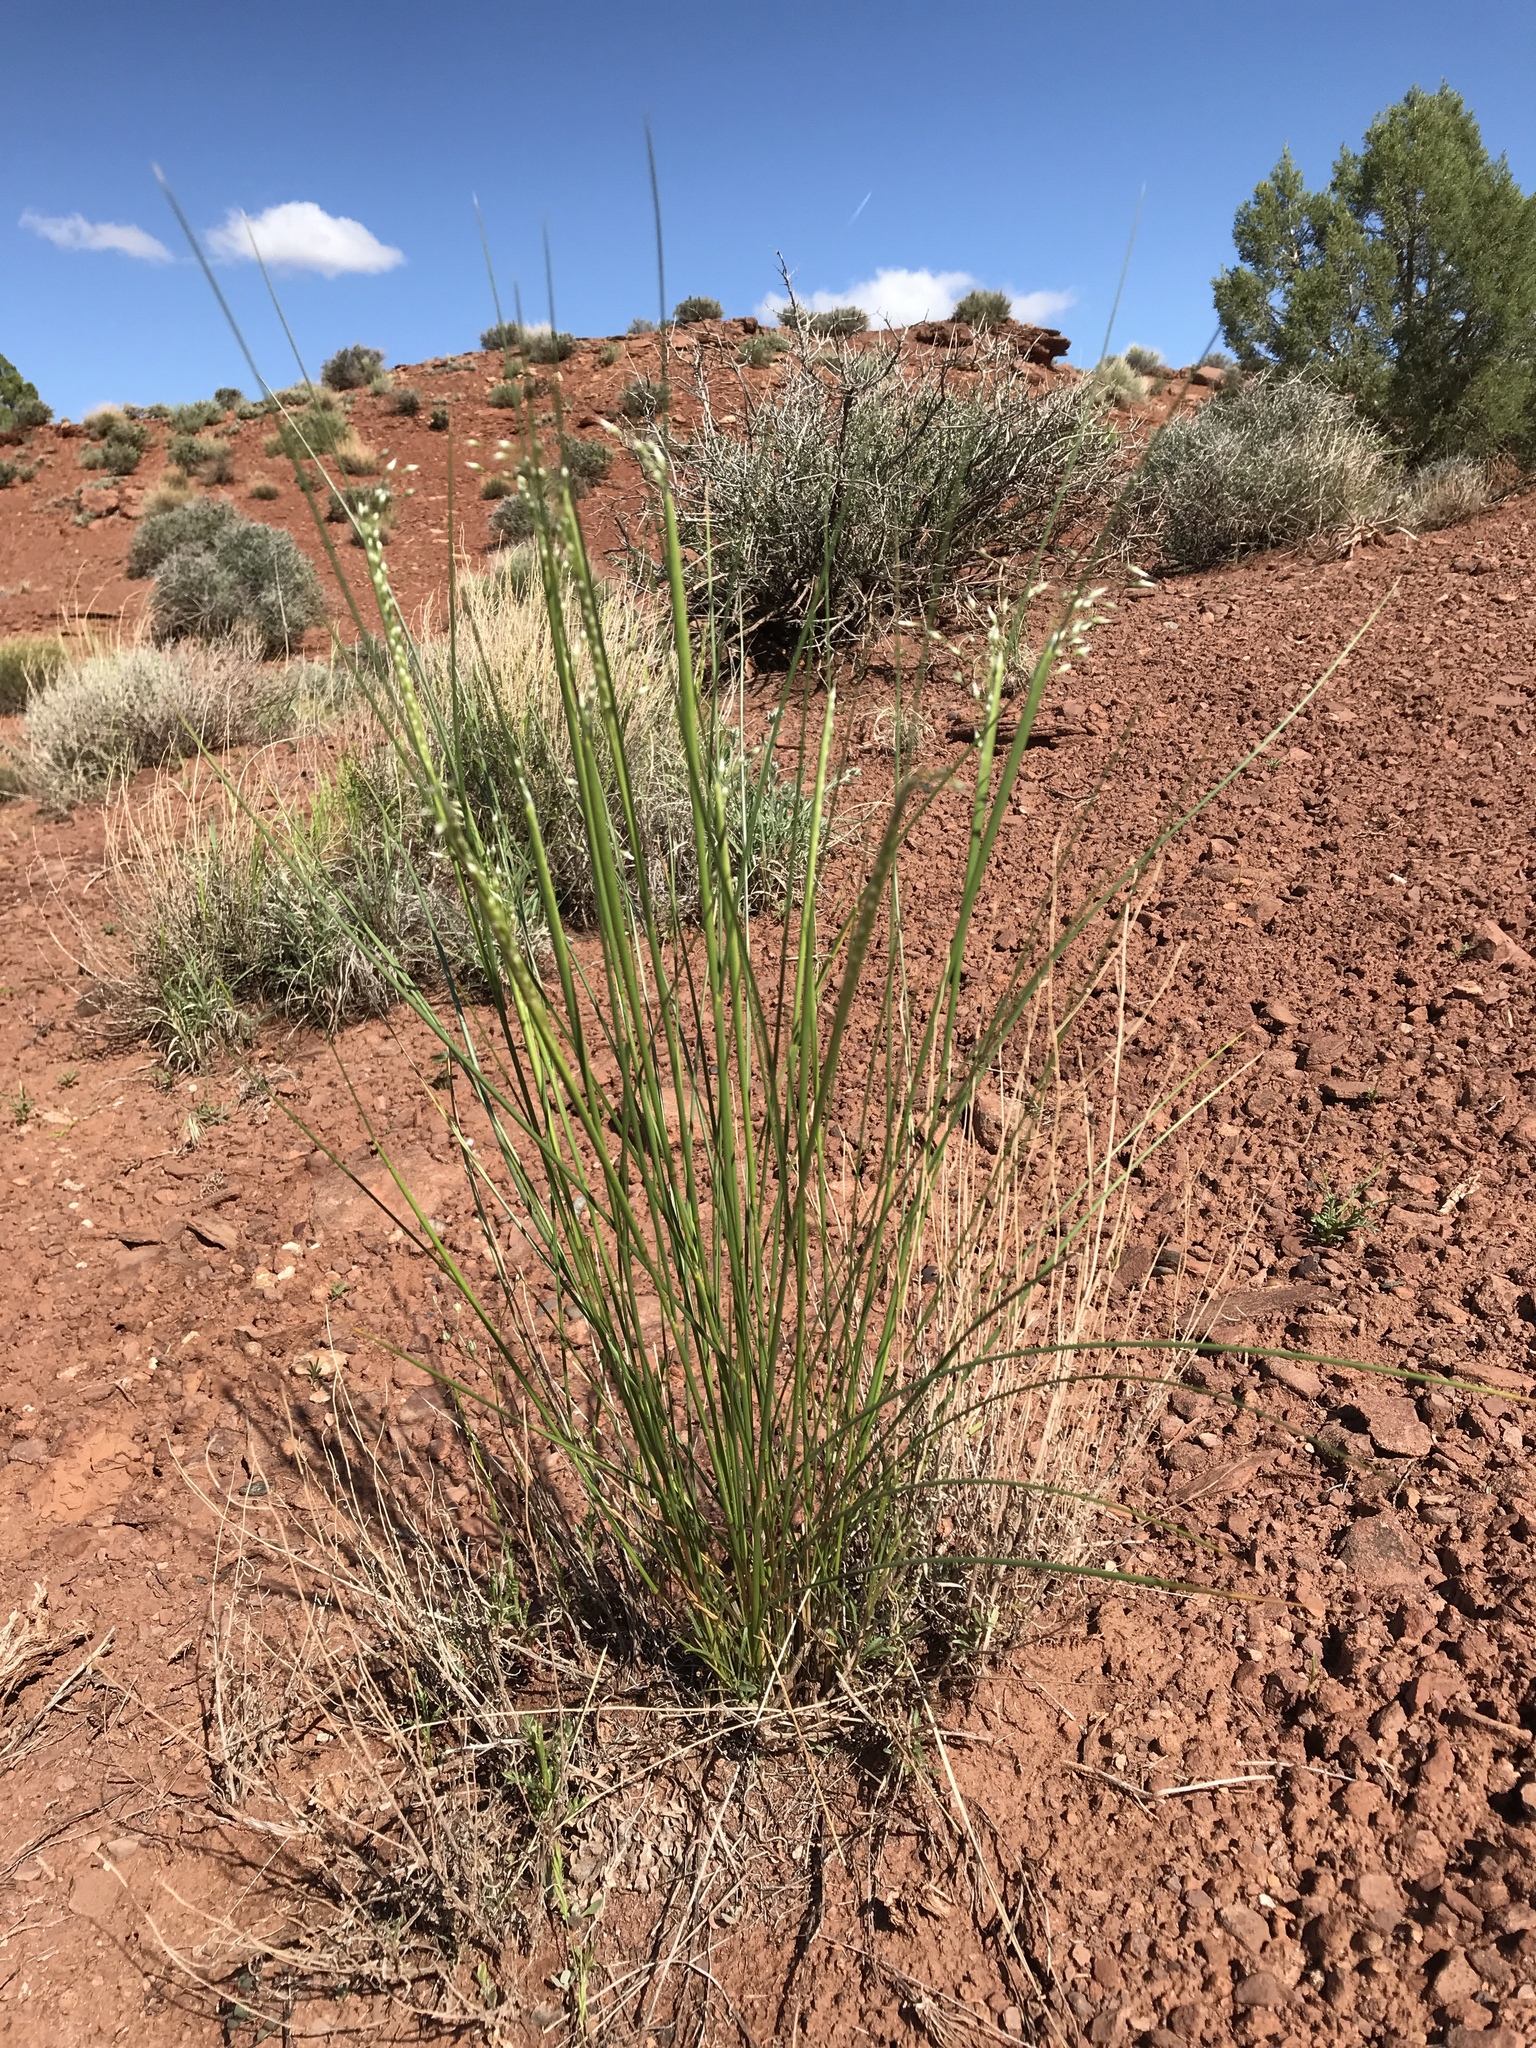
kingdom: Plantae
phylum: Tracheophyta
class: Liliopsida
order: Poales
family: Poaceae
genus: Eriocoma
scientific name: Eriocoma hymenoides
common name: Indian mountain ricegrass
